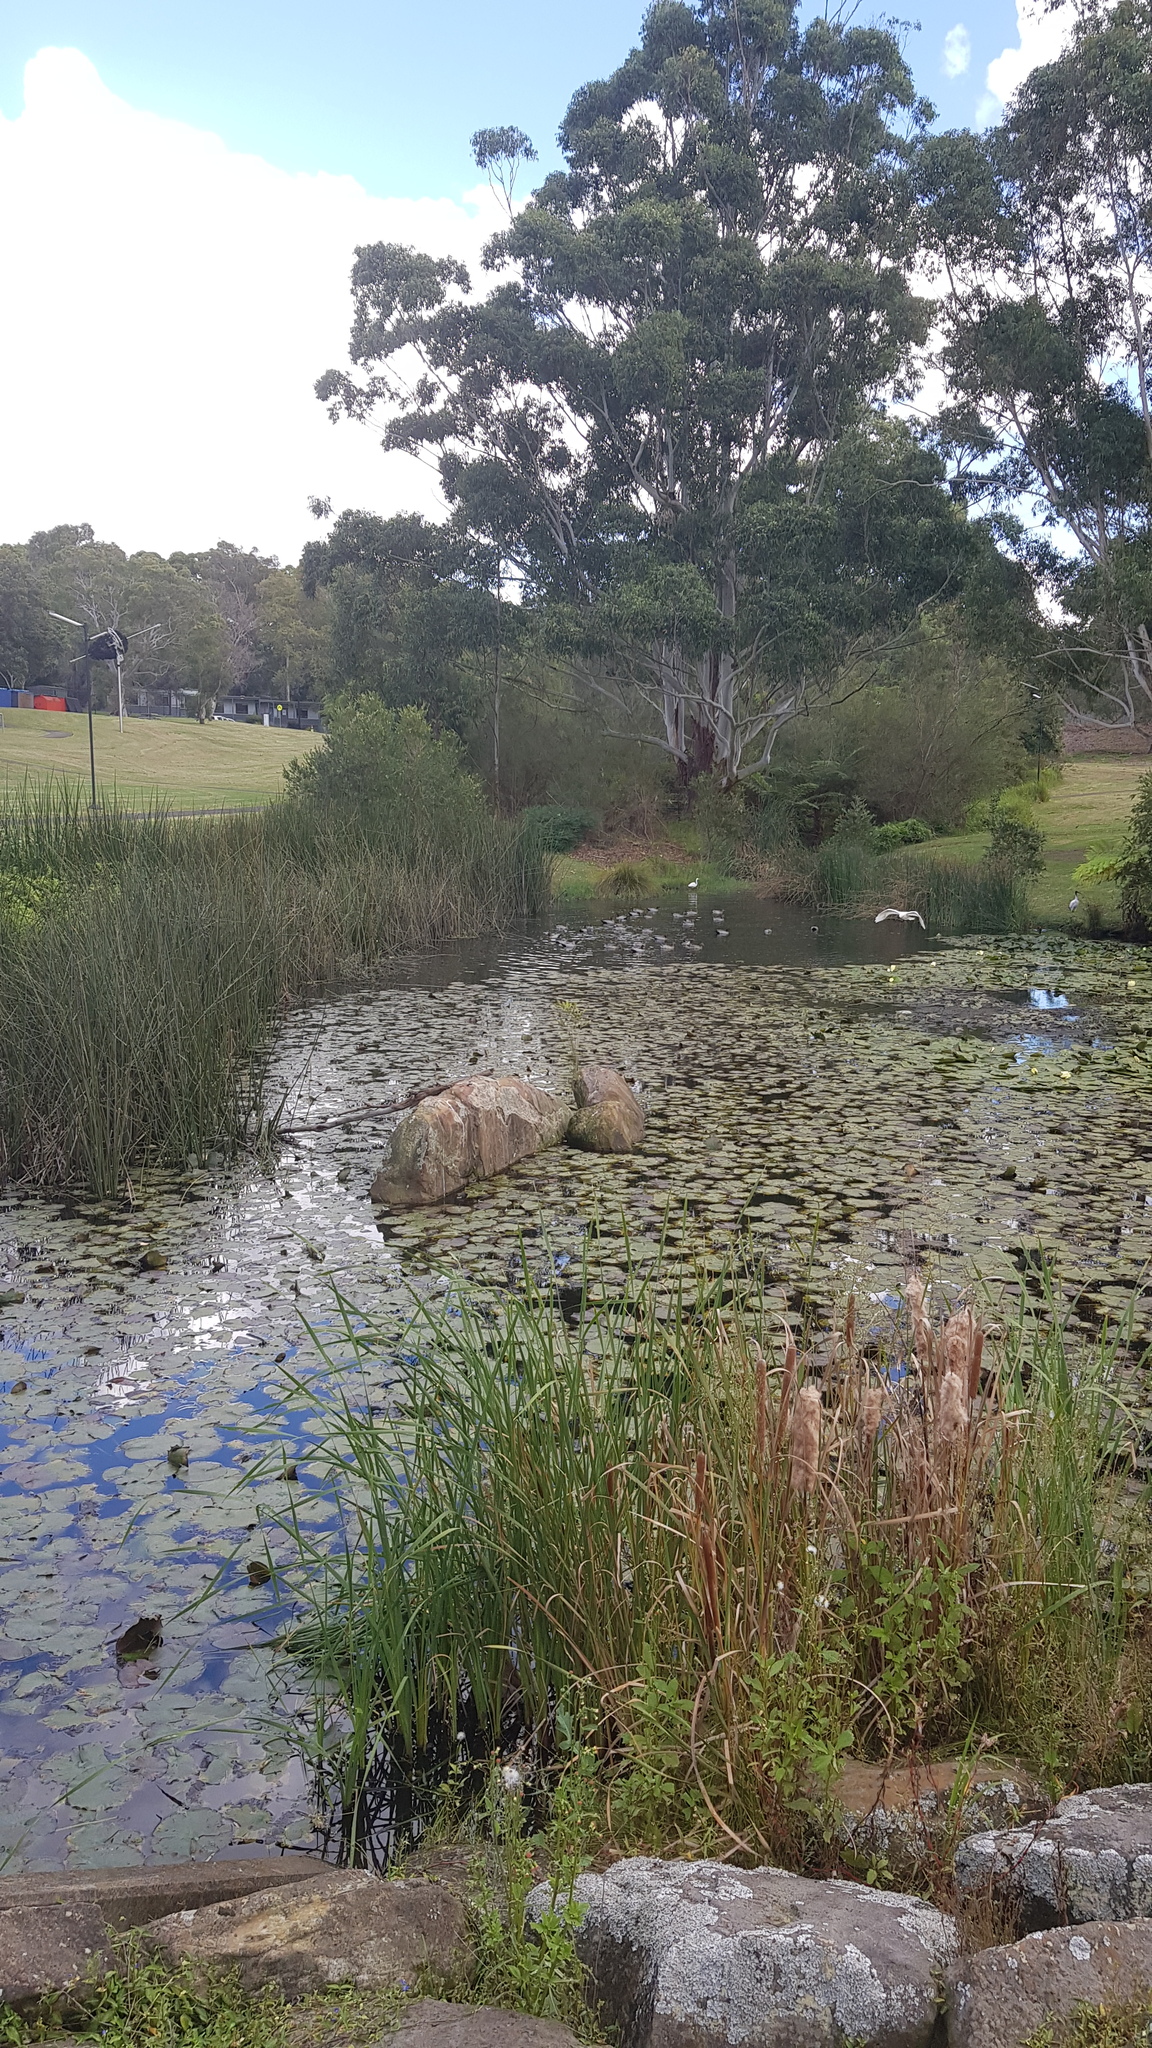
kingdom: Animalia
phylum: Chordata
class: Aves
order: Anseriformes
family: Anatidae
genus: Chenonetta
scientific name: Chenonetta jubata
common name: Maned duck
